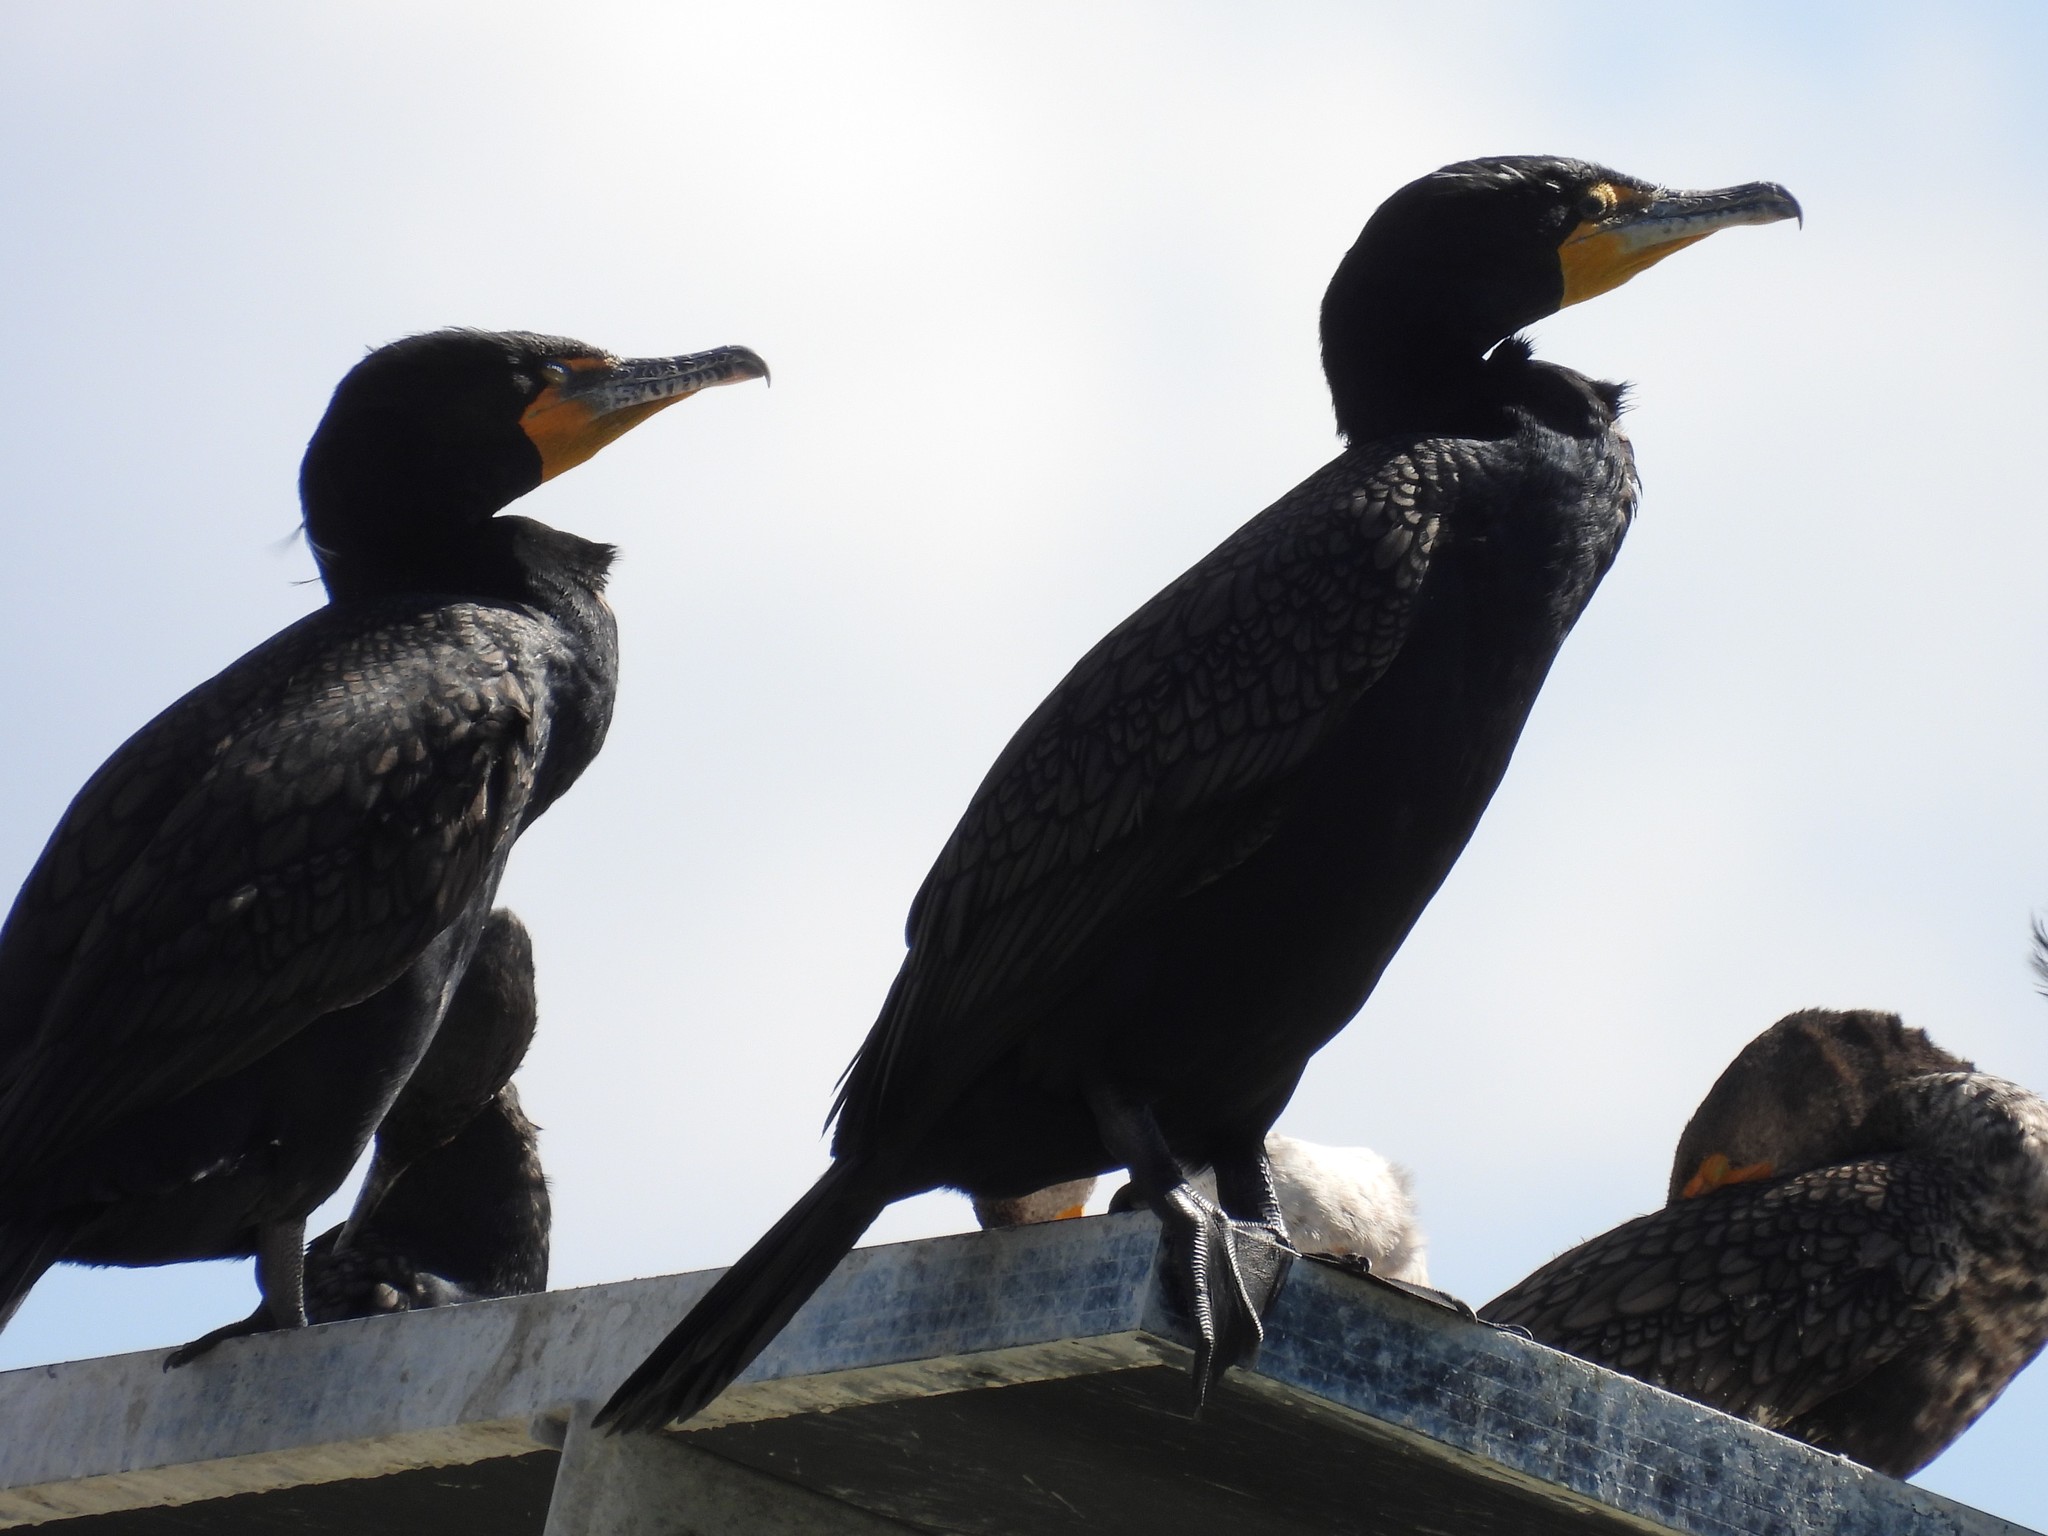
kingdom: Animalia
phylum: Chordata
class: Aves
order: Suliformes
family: Phalacrocoracidae
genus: Phalacrocorax
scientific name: Phalacrocorax auritus
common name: Double-crested cormorant
